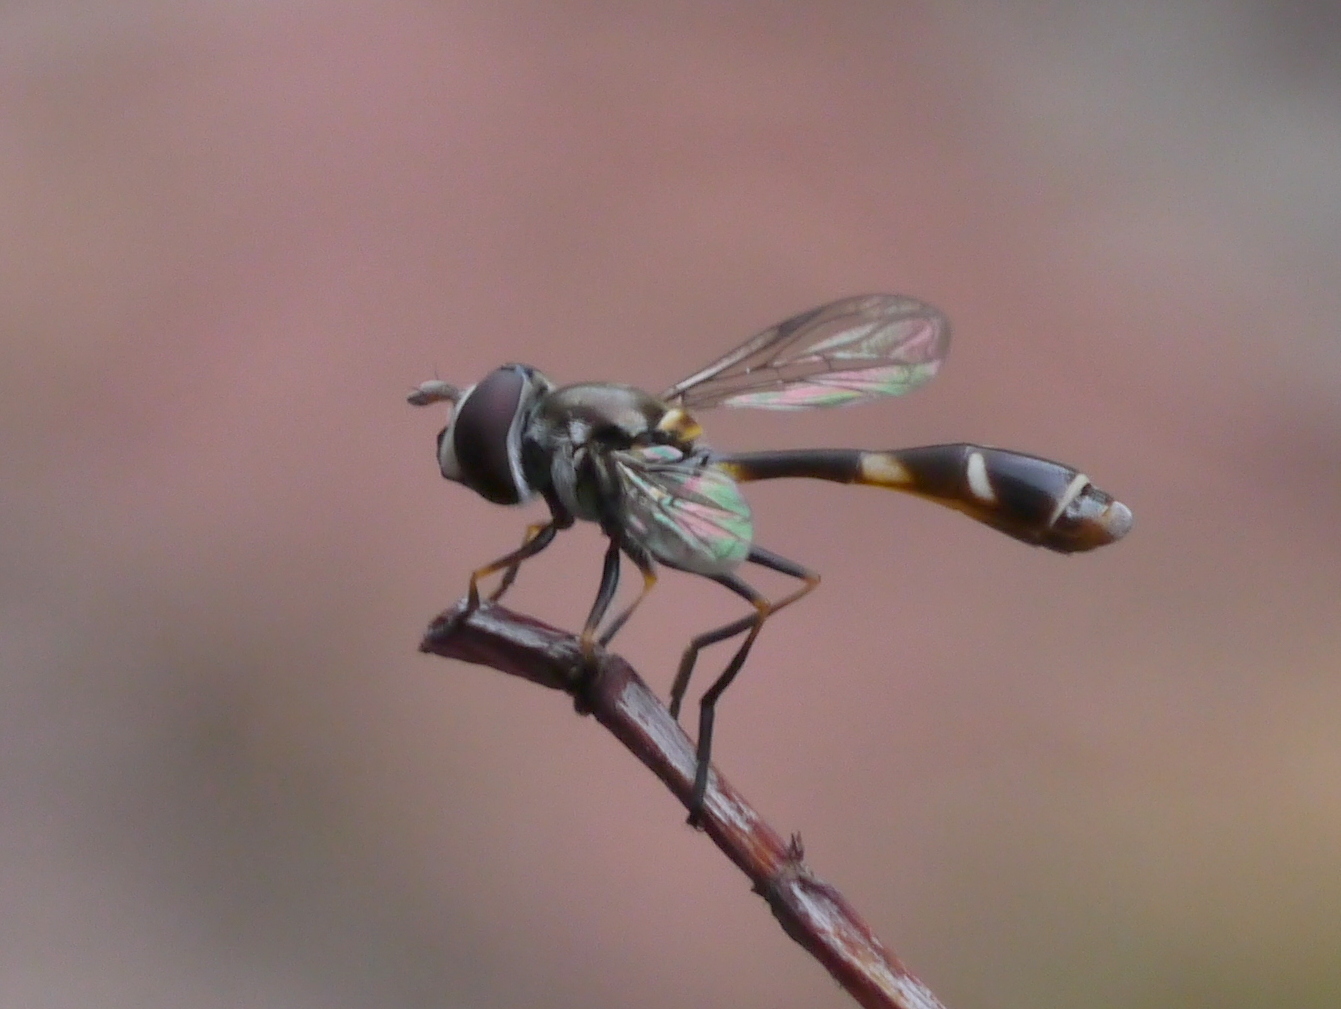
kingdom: Animalia
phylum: Arthropoda
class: Insecta
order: Diptera
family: Syrphidae
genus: Dioprosopa
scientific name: Dioprosopa clavatus
